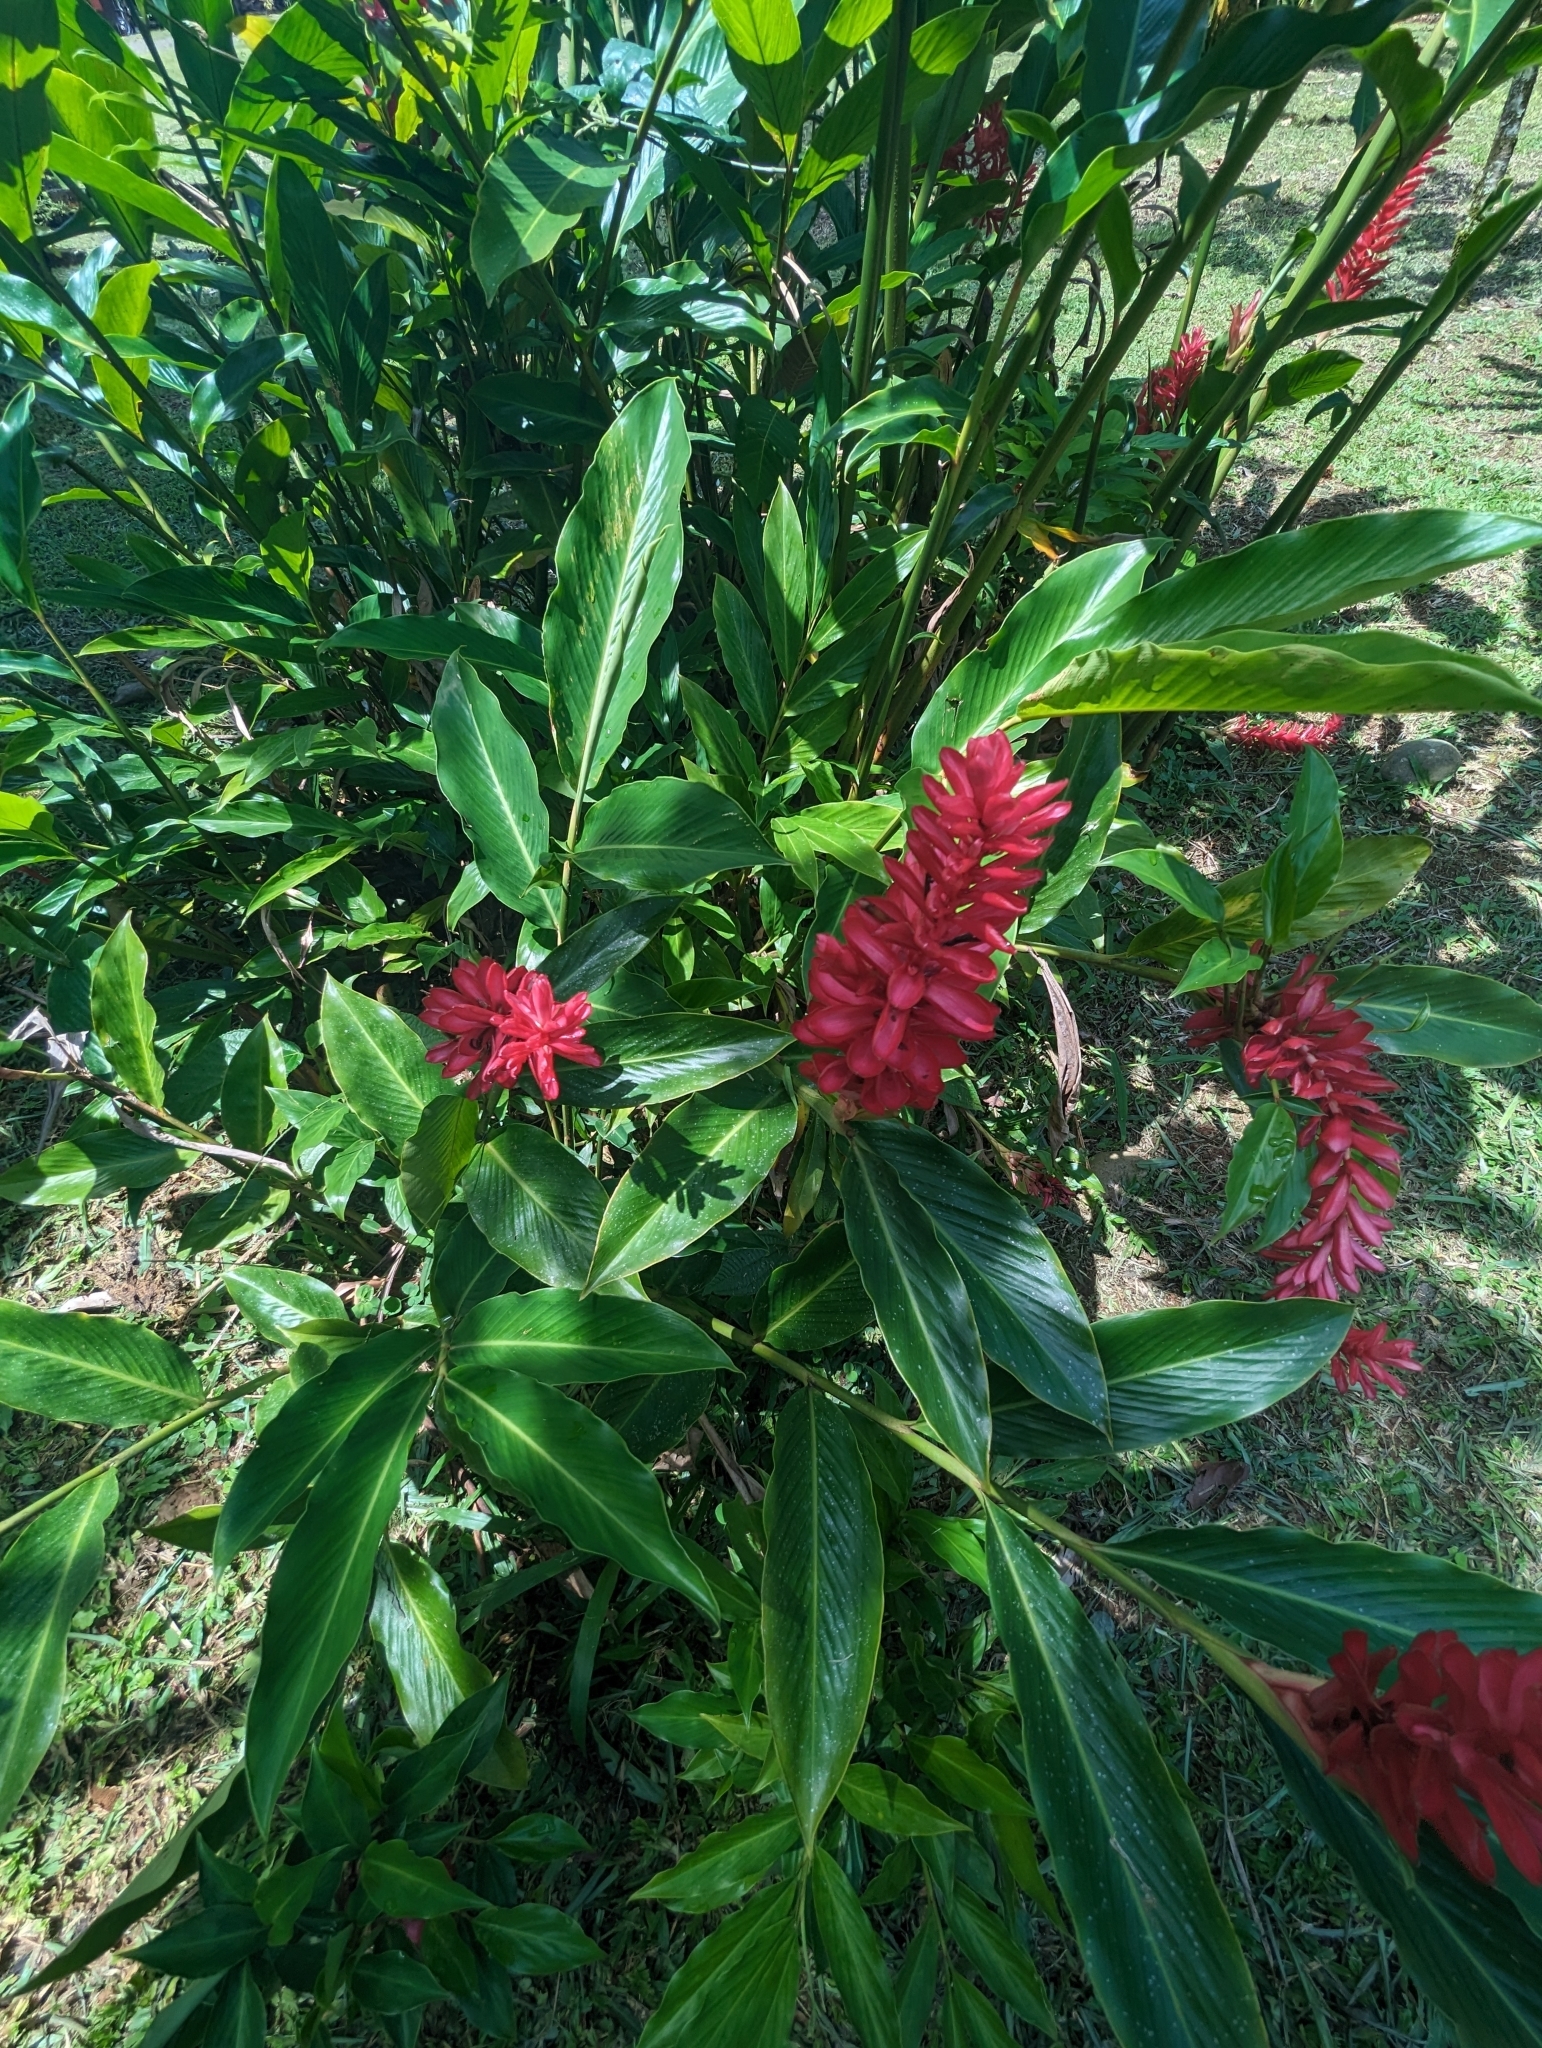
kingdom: Plantae
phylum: Tracheophyta
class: Liliopsida
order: Zingiberales
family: Zingiberaceae
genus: Alpinia
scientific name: Alpinia purpurata
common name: Red ginger
